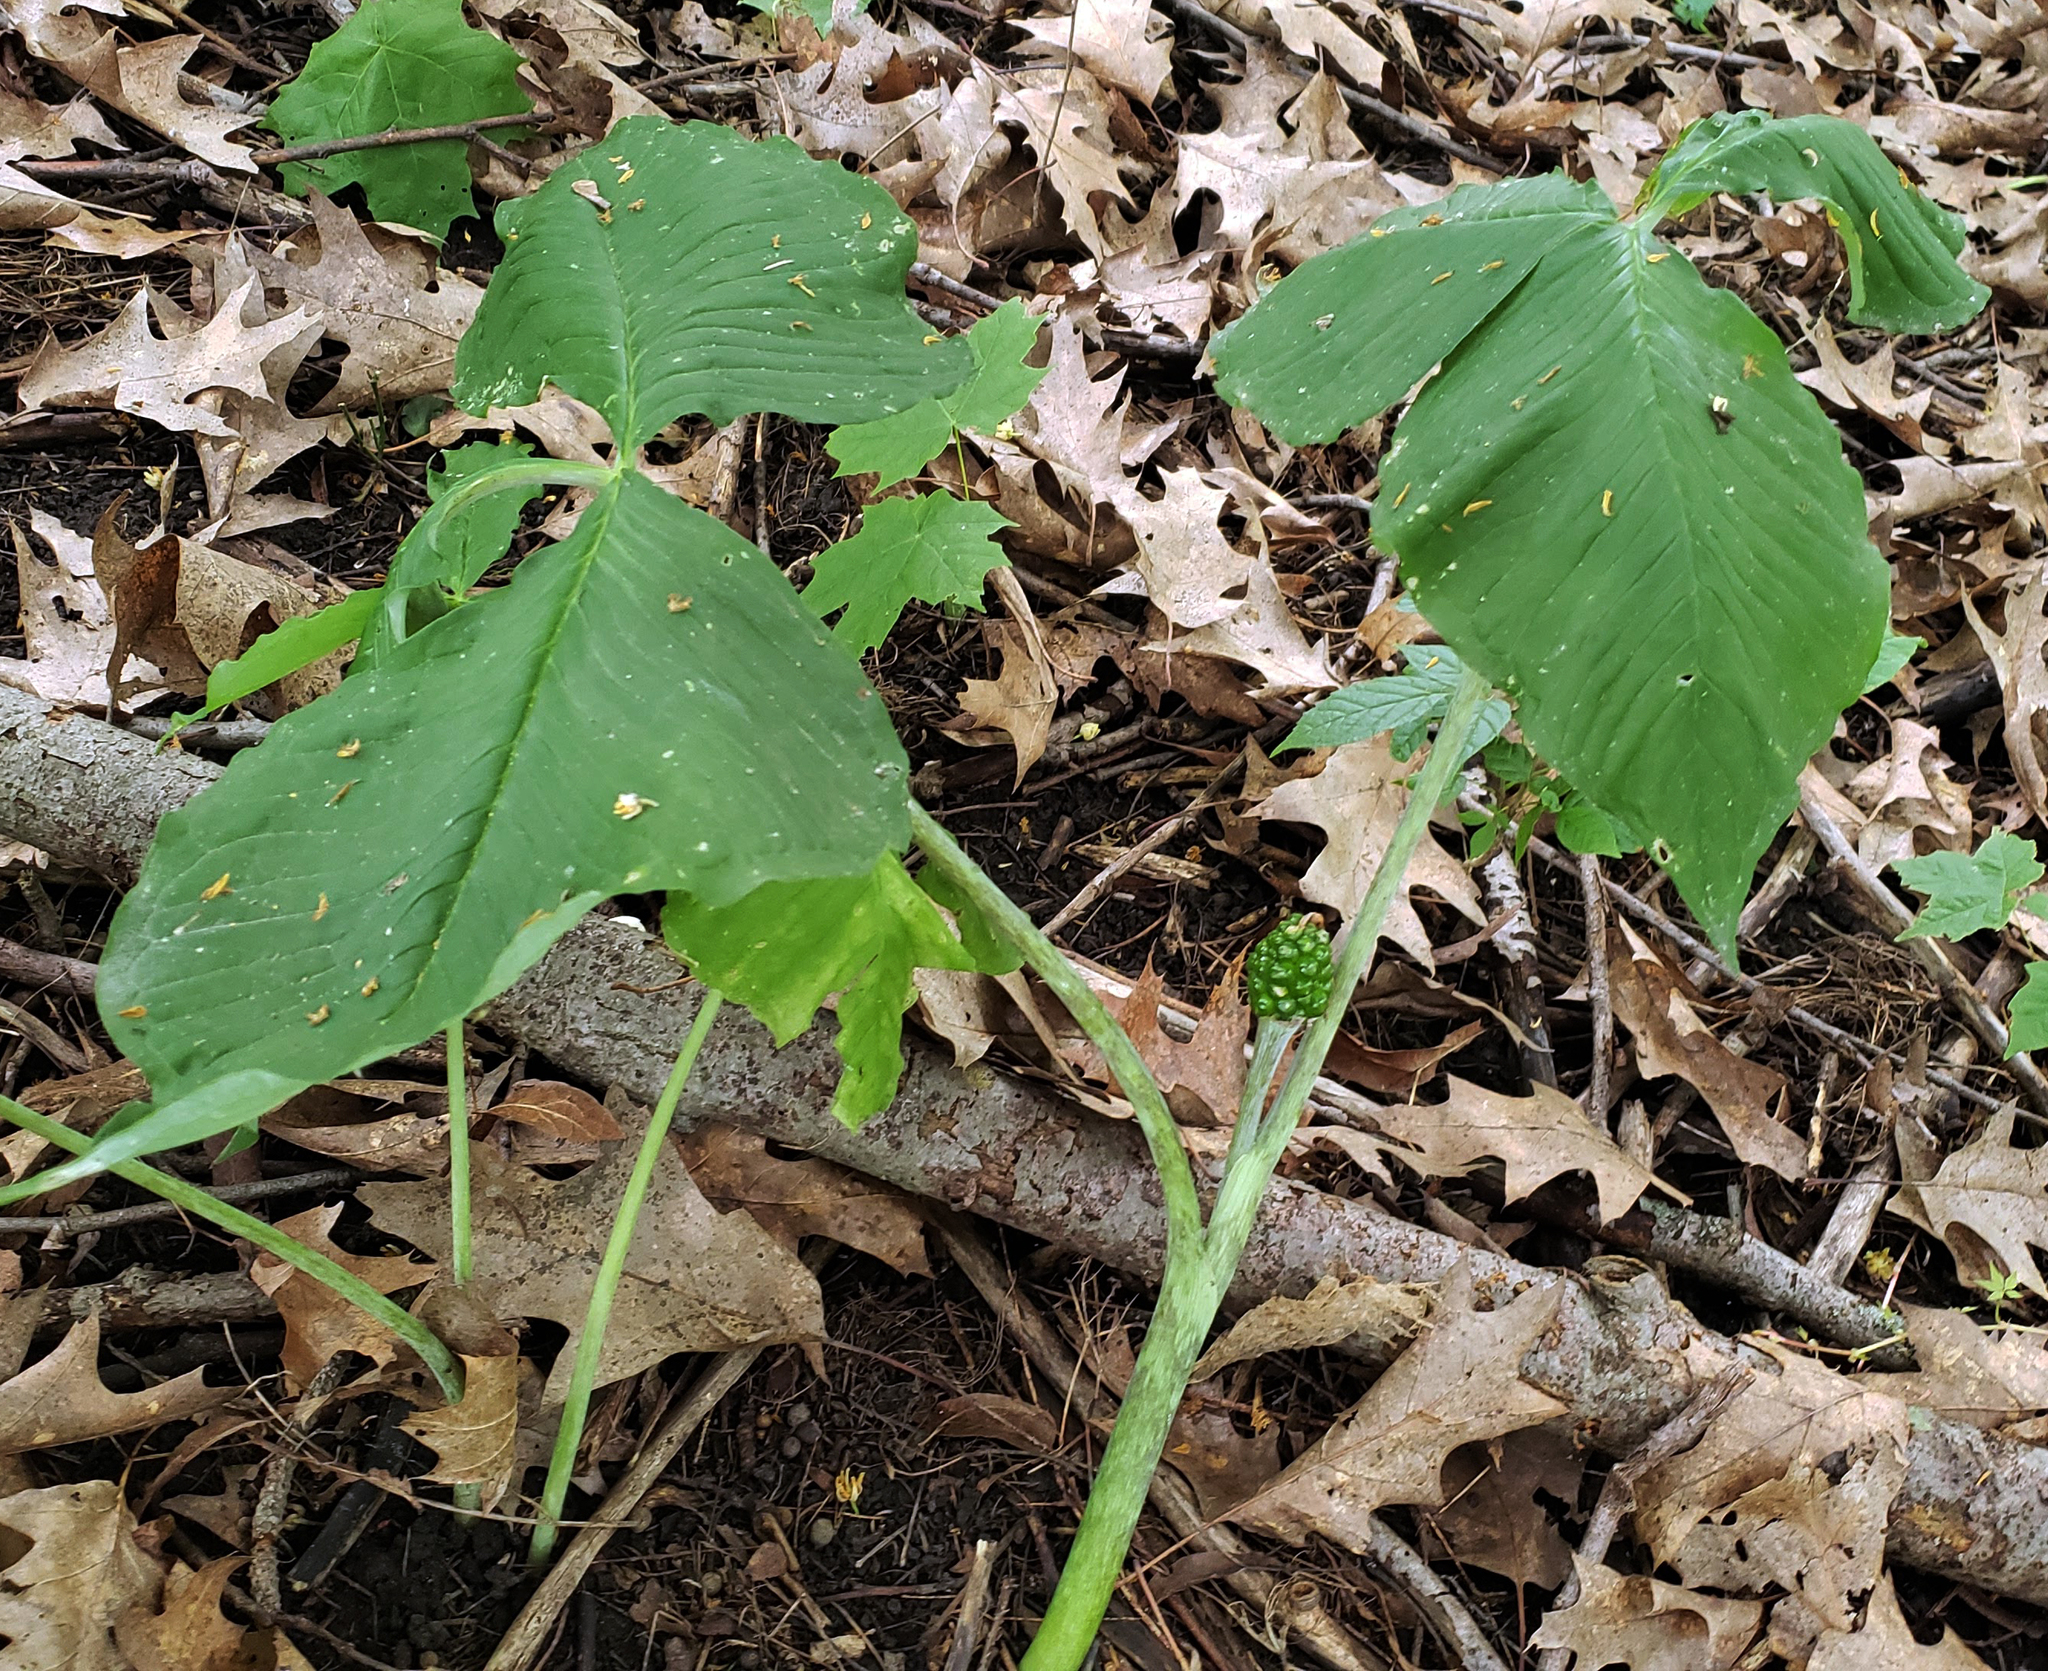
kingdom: Plantae
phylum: Tracheophyta
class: Liliopsida
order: Alismatales
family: Araceae
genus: Arisaema
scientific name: Arisaema triphyllum
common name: Jack-in-the-pulpit
